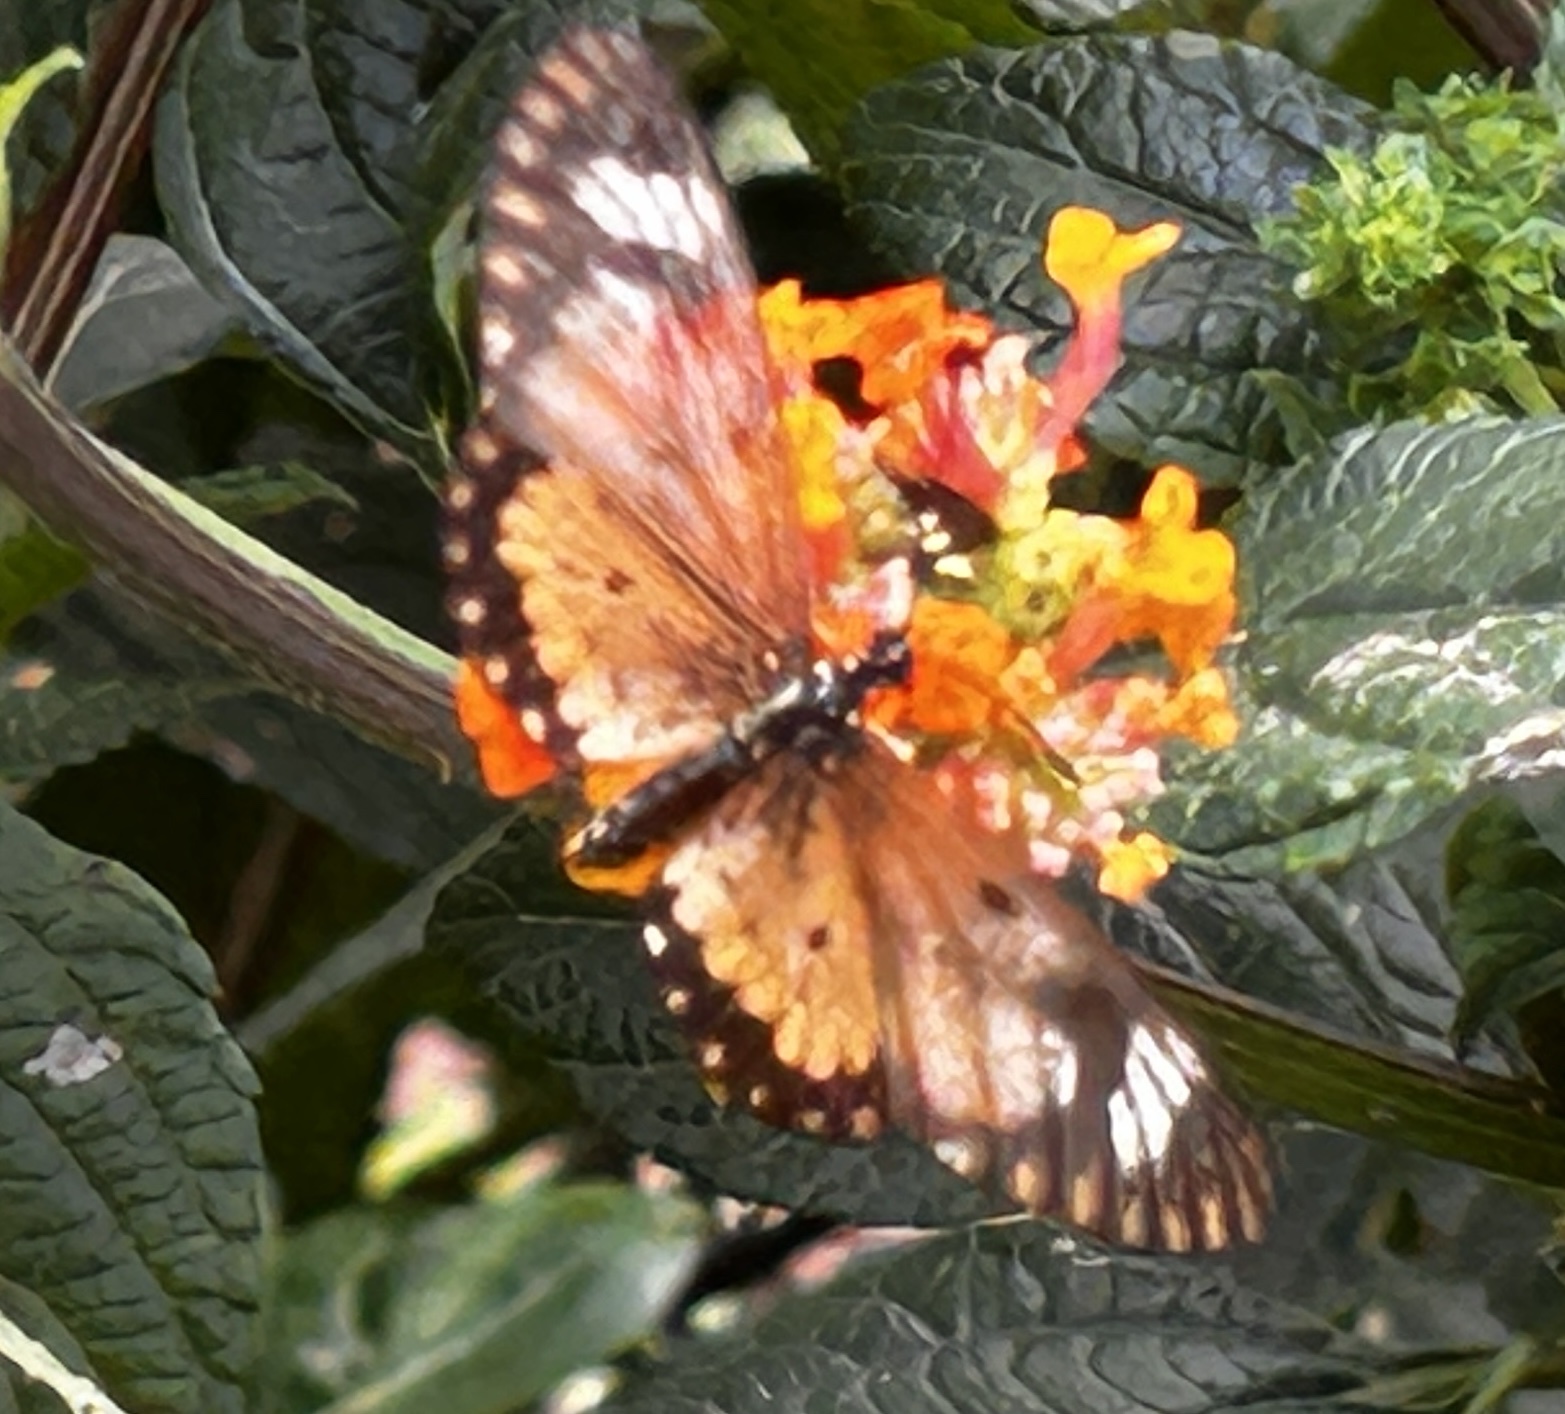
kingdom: Animalia
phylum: Arthropoda
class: Insecta
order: Lepidoptera
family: Nymphalidae
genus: Acraea
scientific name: Acraea Telchinia serena
